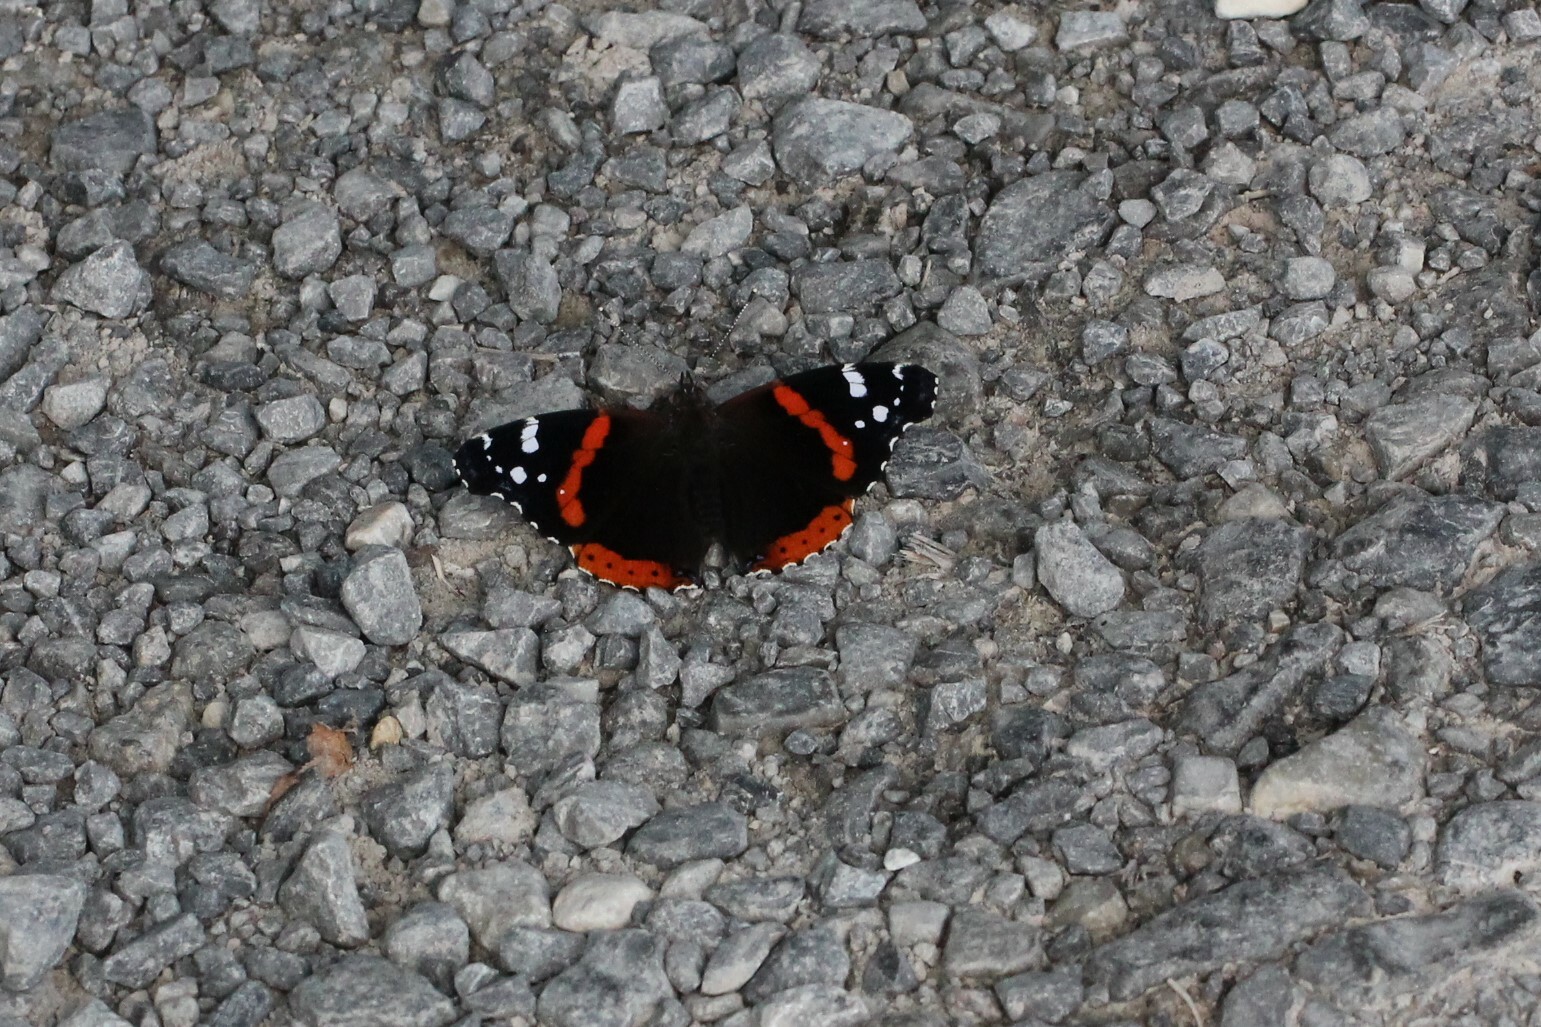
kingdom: Animalia
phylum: Arthropoda
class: Insecta
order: Lepidoptera
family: Nymphalidae
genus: Vanessa
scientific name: Vanessa atalanta
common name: Red admiral
